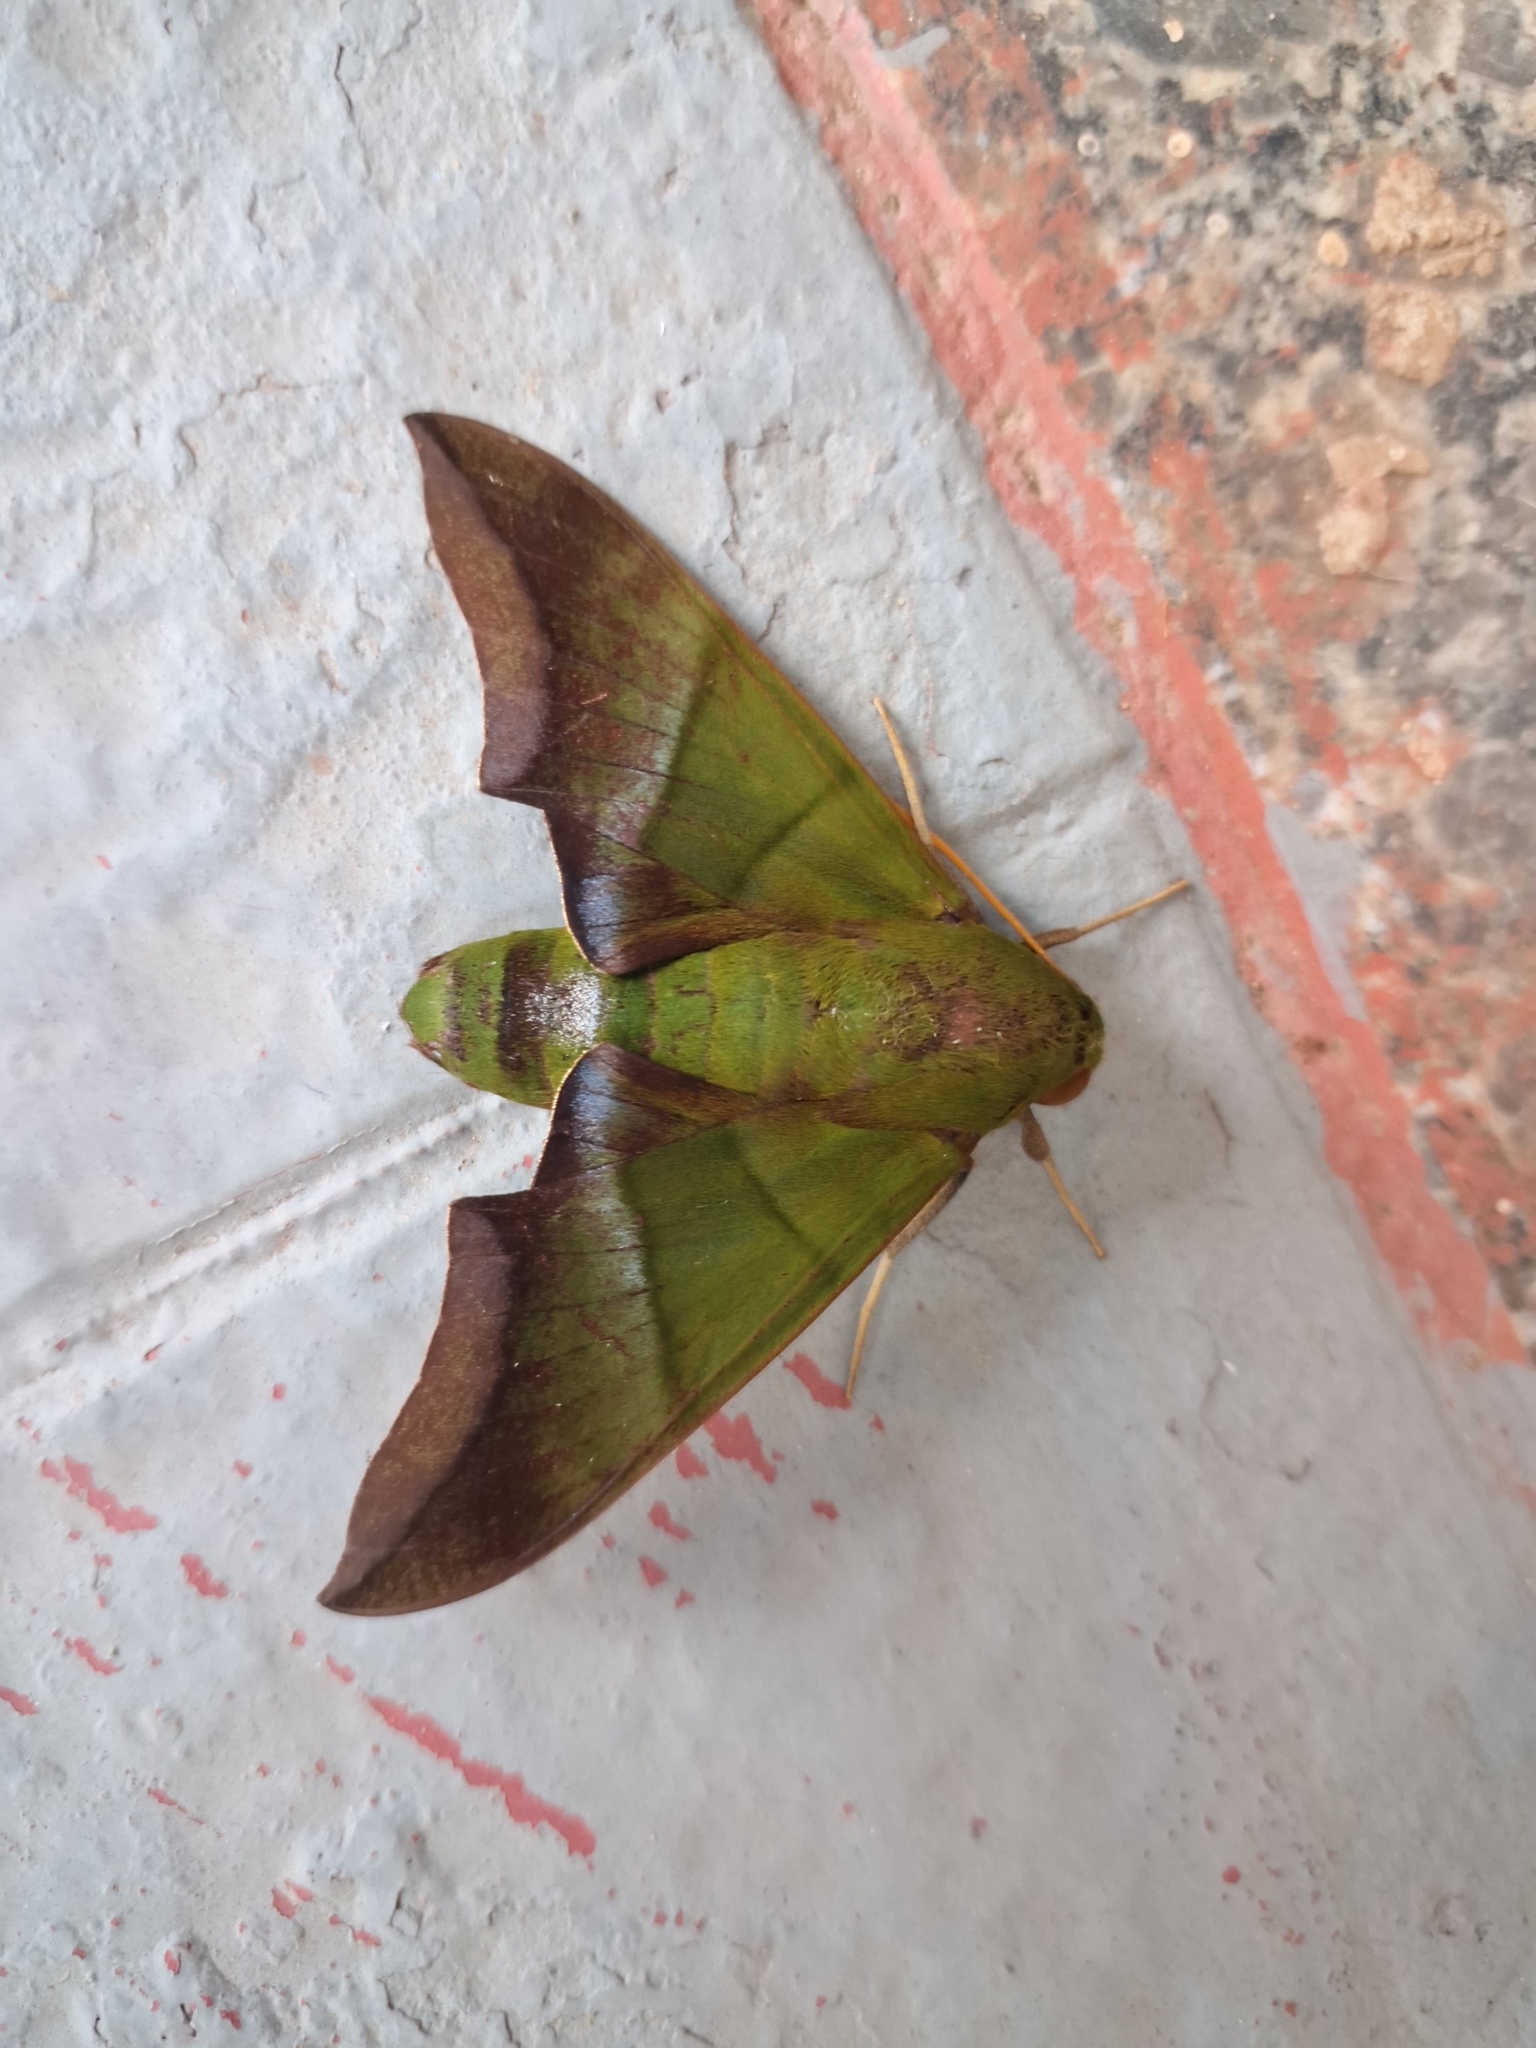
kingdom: Animalia
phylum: Arthropoda
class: Insecta
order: Lepidoptera
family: Sphingidae
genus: Oryba
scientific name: Oryba achemenides
